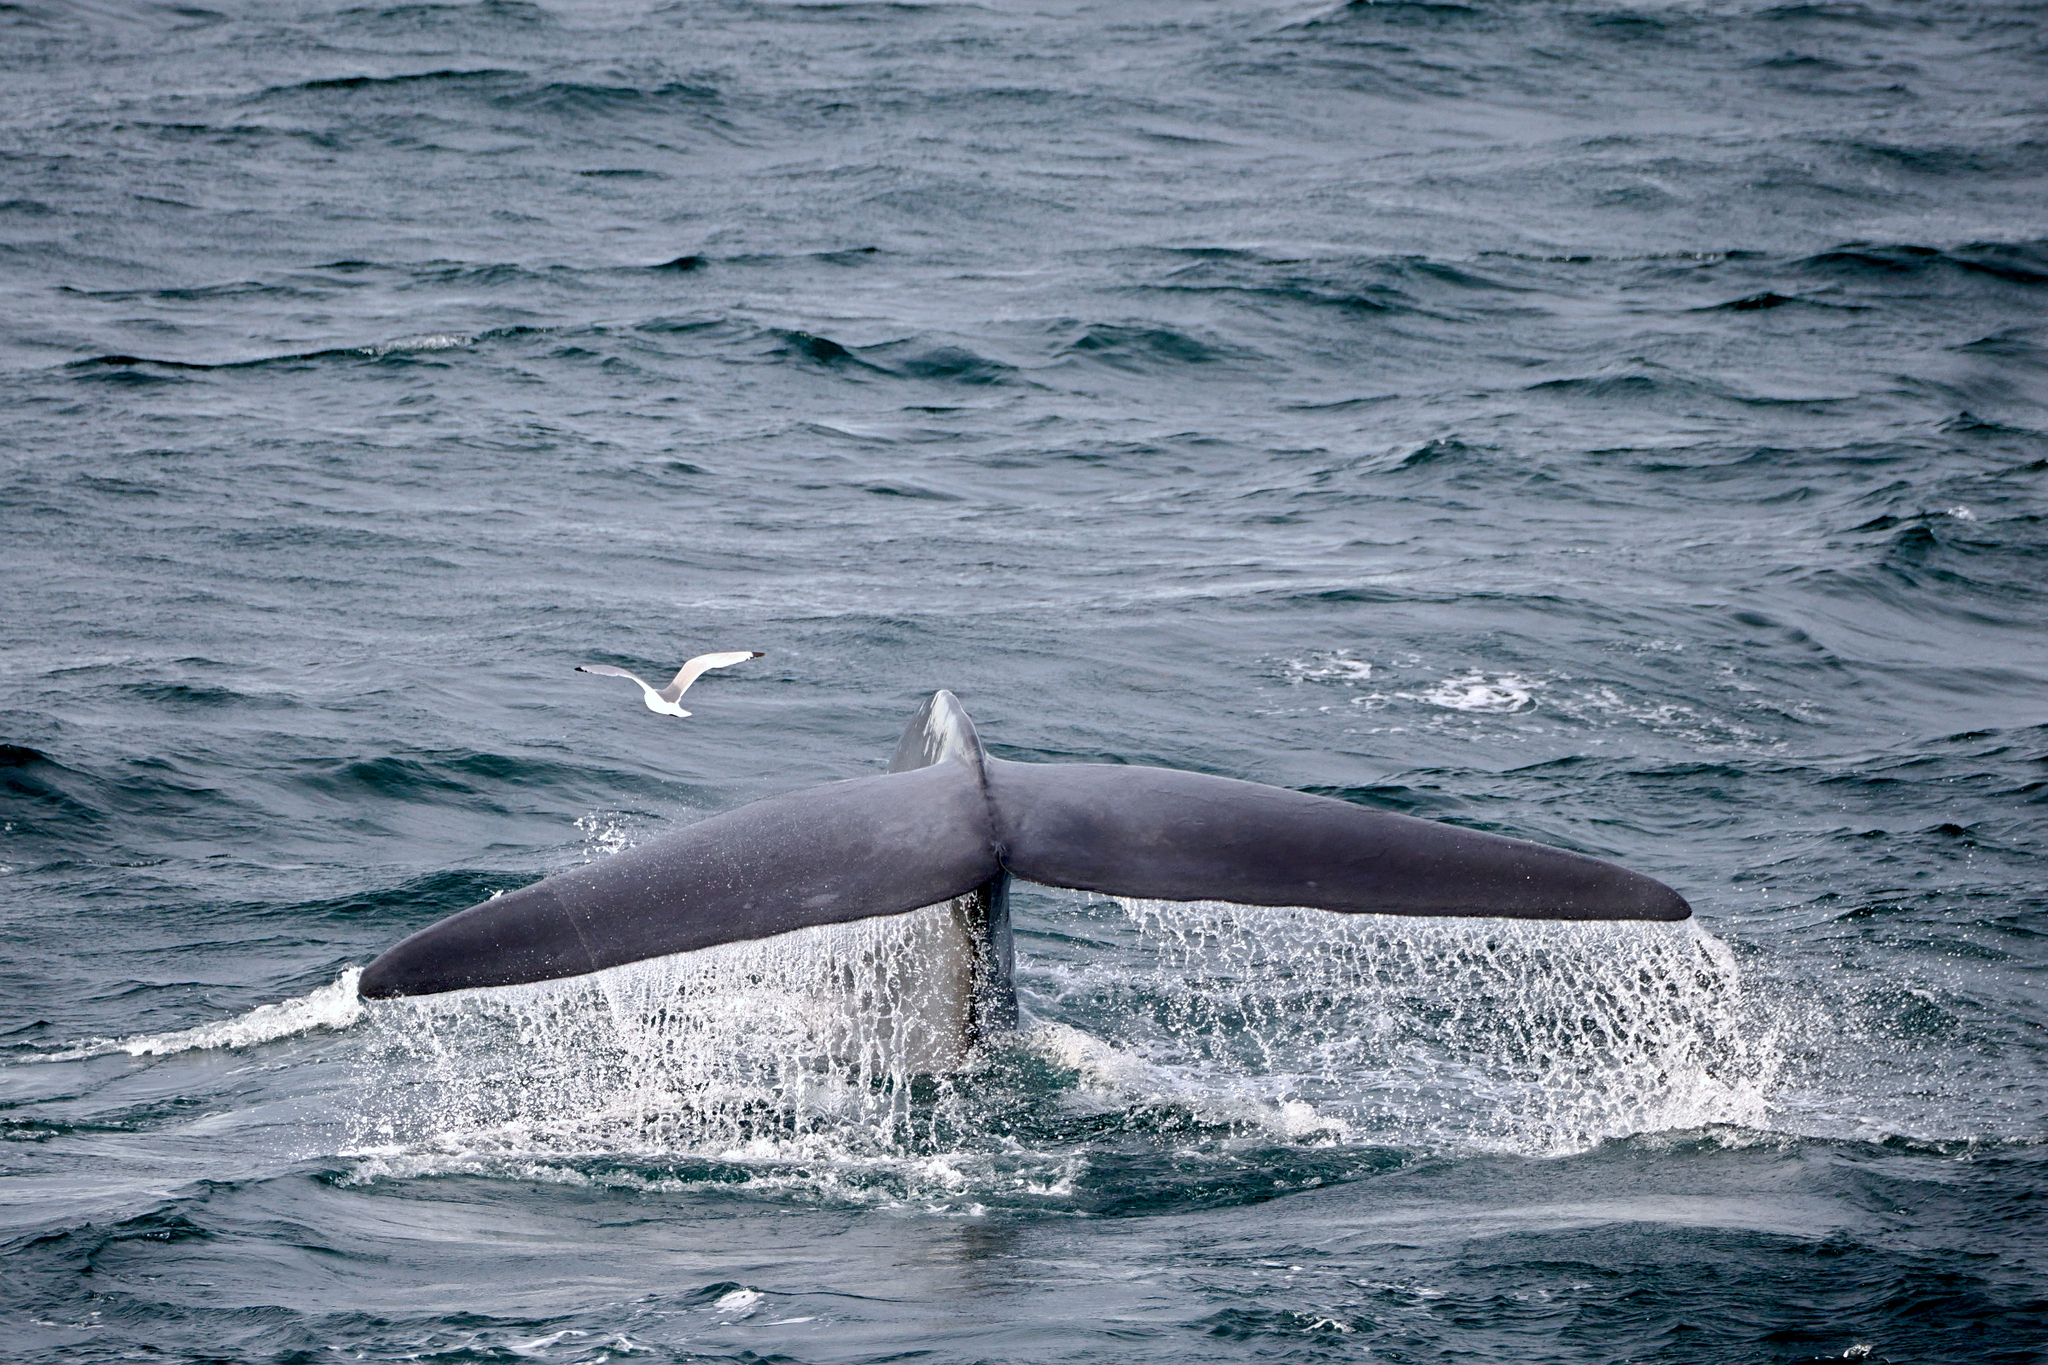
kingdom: Animalia
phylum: Chordata
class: Aves
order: Charadriiformes
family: Laridae
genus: Rissa
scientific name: Rissa tridactyla
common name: Black-legged kittiwake
